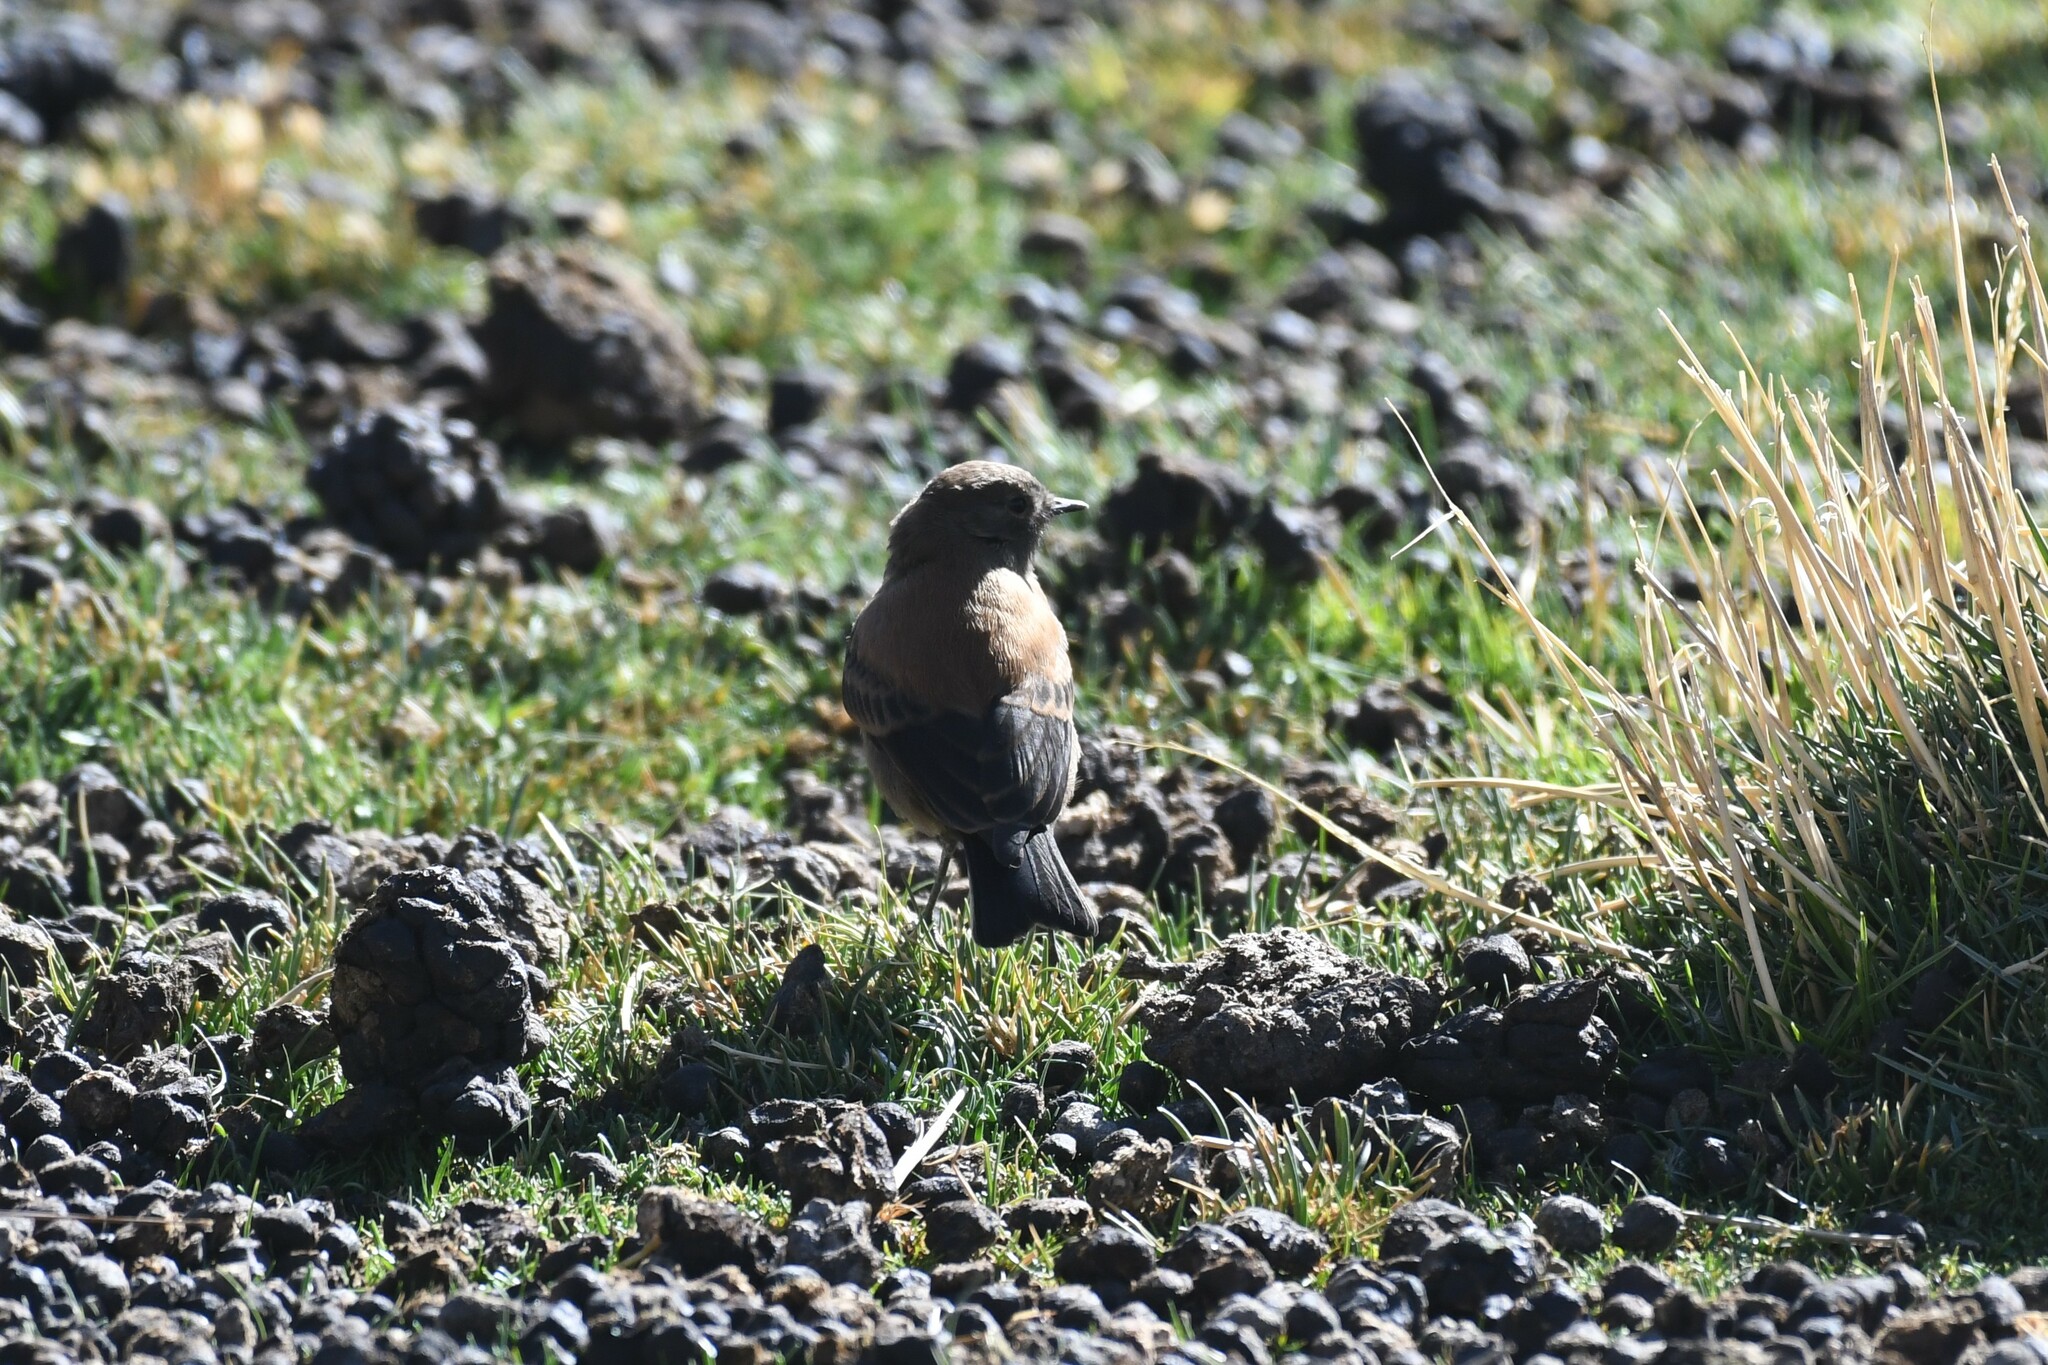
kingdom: Animalia
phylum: Chordata
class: Aves
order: Passeriformes
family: Tyrannidae
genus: Lessonia
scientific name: Lessonia oreas
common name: Andean negrito
